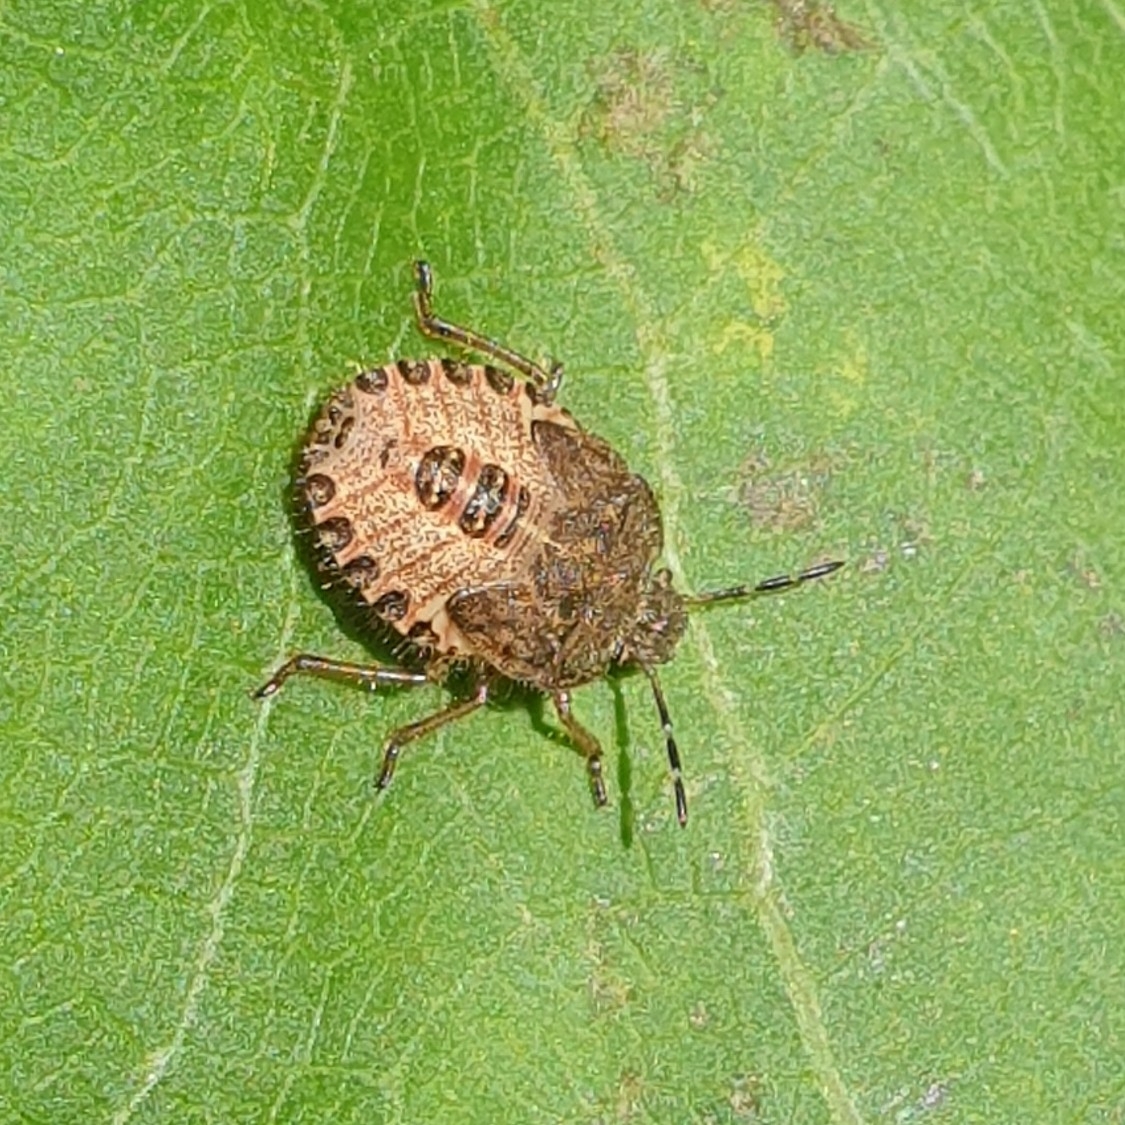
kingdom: Animalia
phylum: Arthropoda
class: Insecta
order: Hemiptera
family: Pentatomidae
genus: Dolycoris
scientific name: Dolycoris baccarum
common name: Sloe bug
